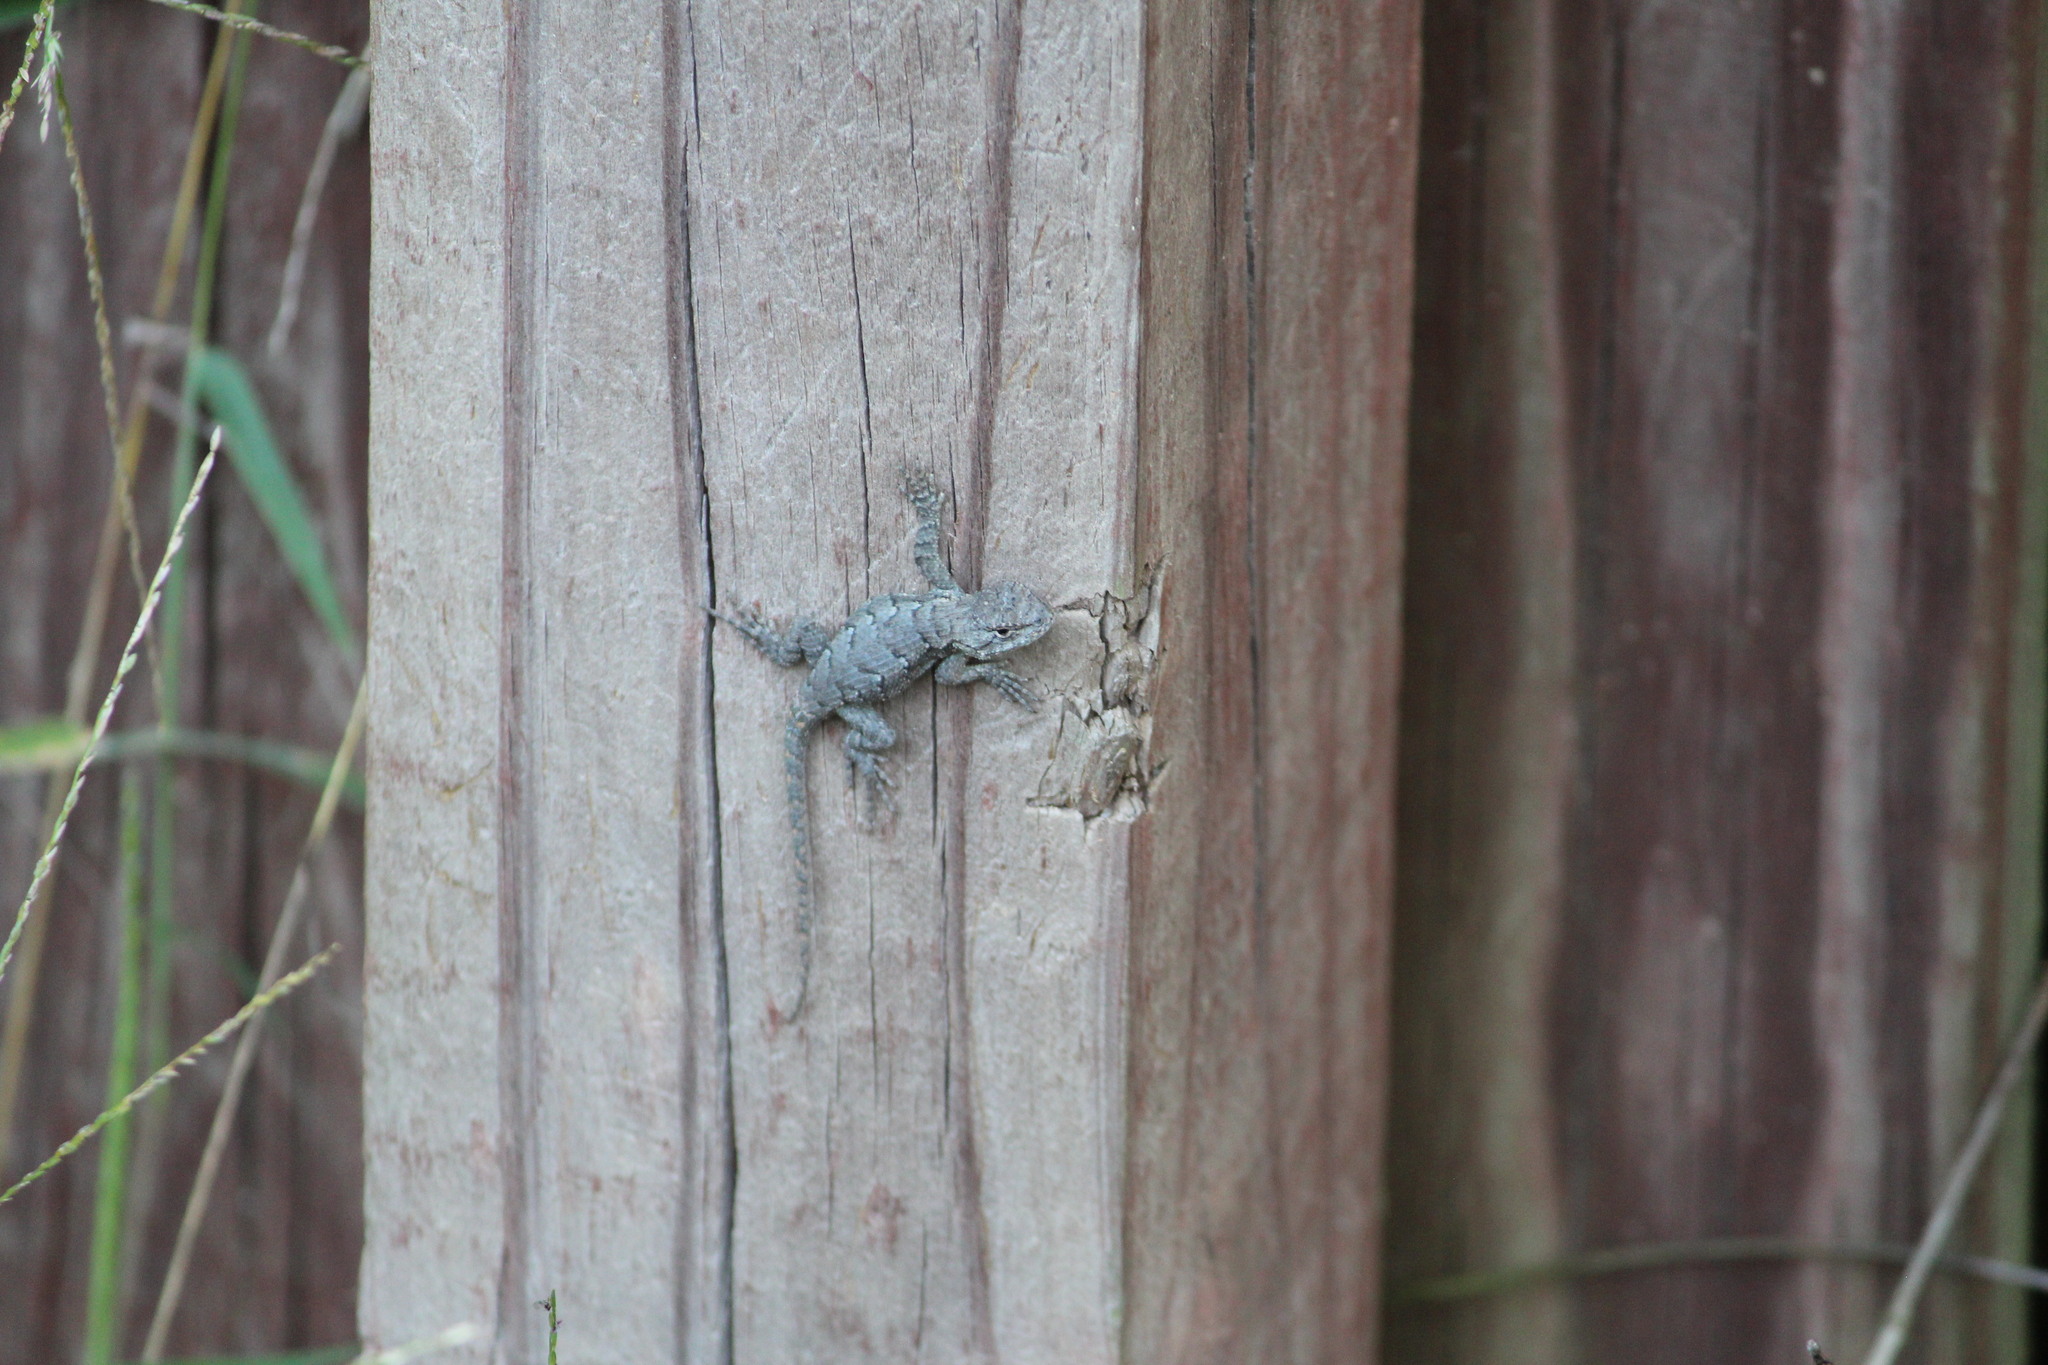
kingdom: Animalia
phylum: Chordata
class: Squamata
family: Phrynosomatidae
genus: Sceloporus
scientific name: Sceloporus undulatus
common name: Eastern fence lizard
